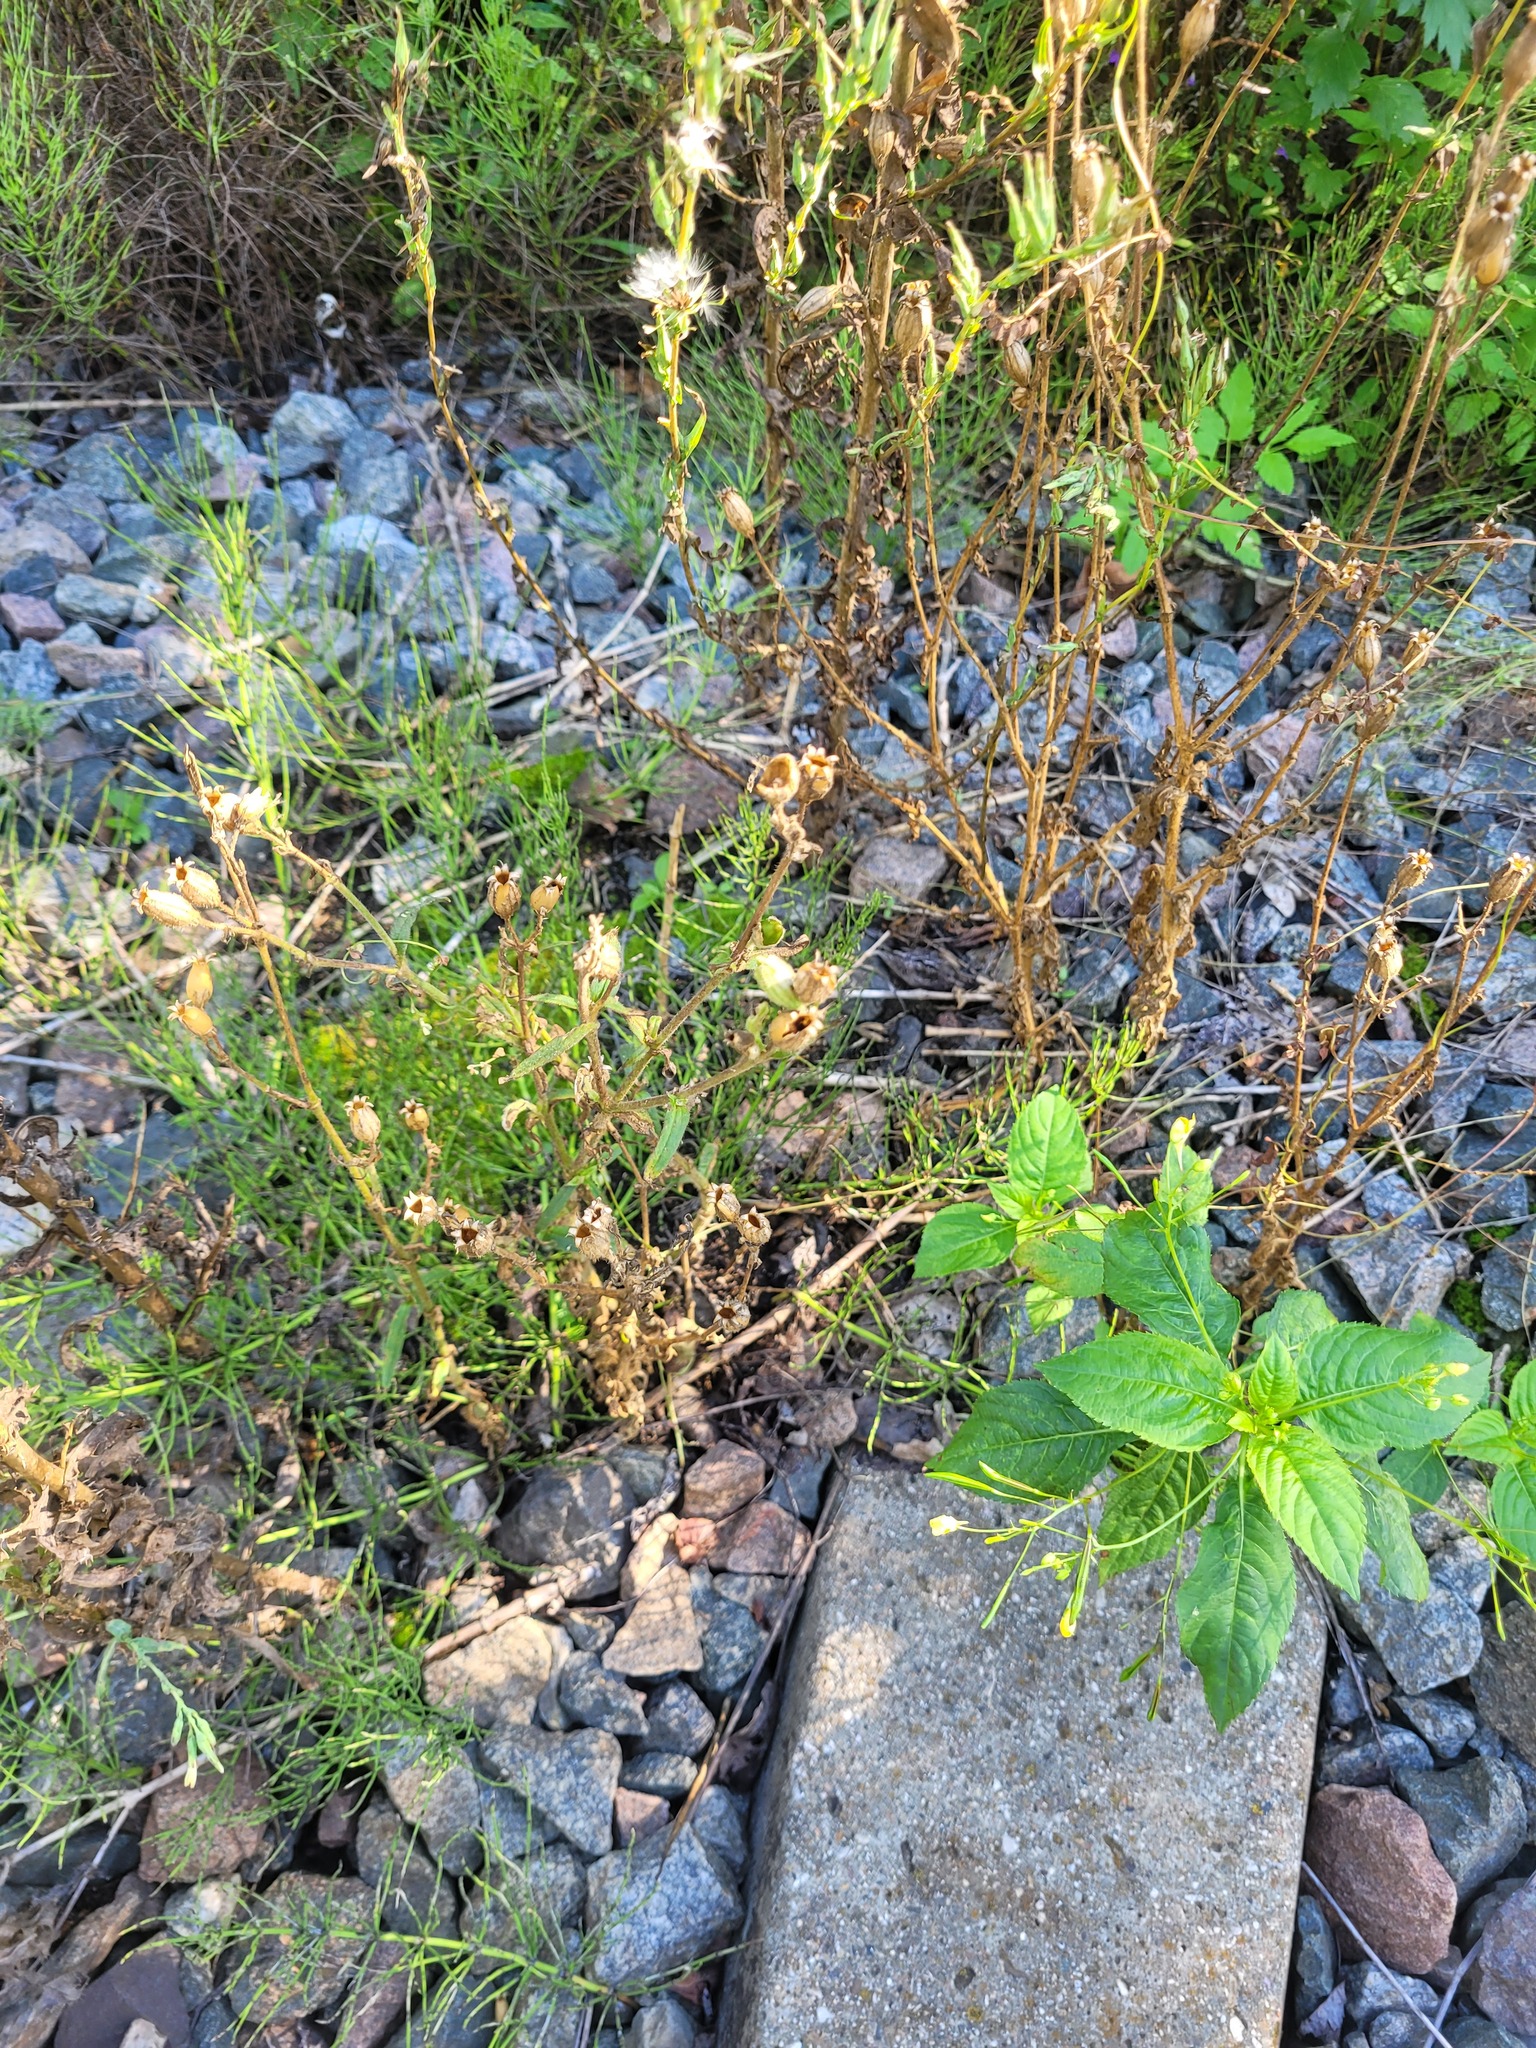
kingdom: Plantae
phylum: Tracheophyta
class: Magnoliopsida
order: Caryophyllales
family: Caryophyllaceae
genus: Silene
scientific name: Silene noctiflora
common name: Night-flowering catchfly
